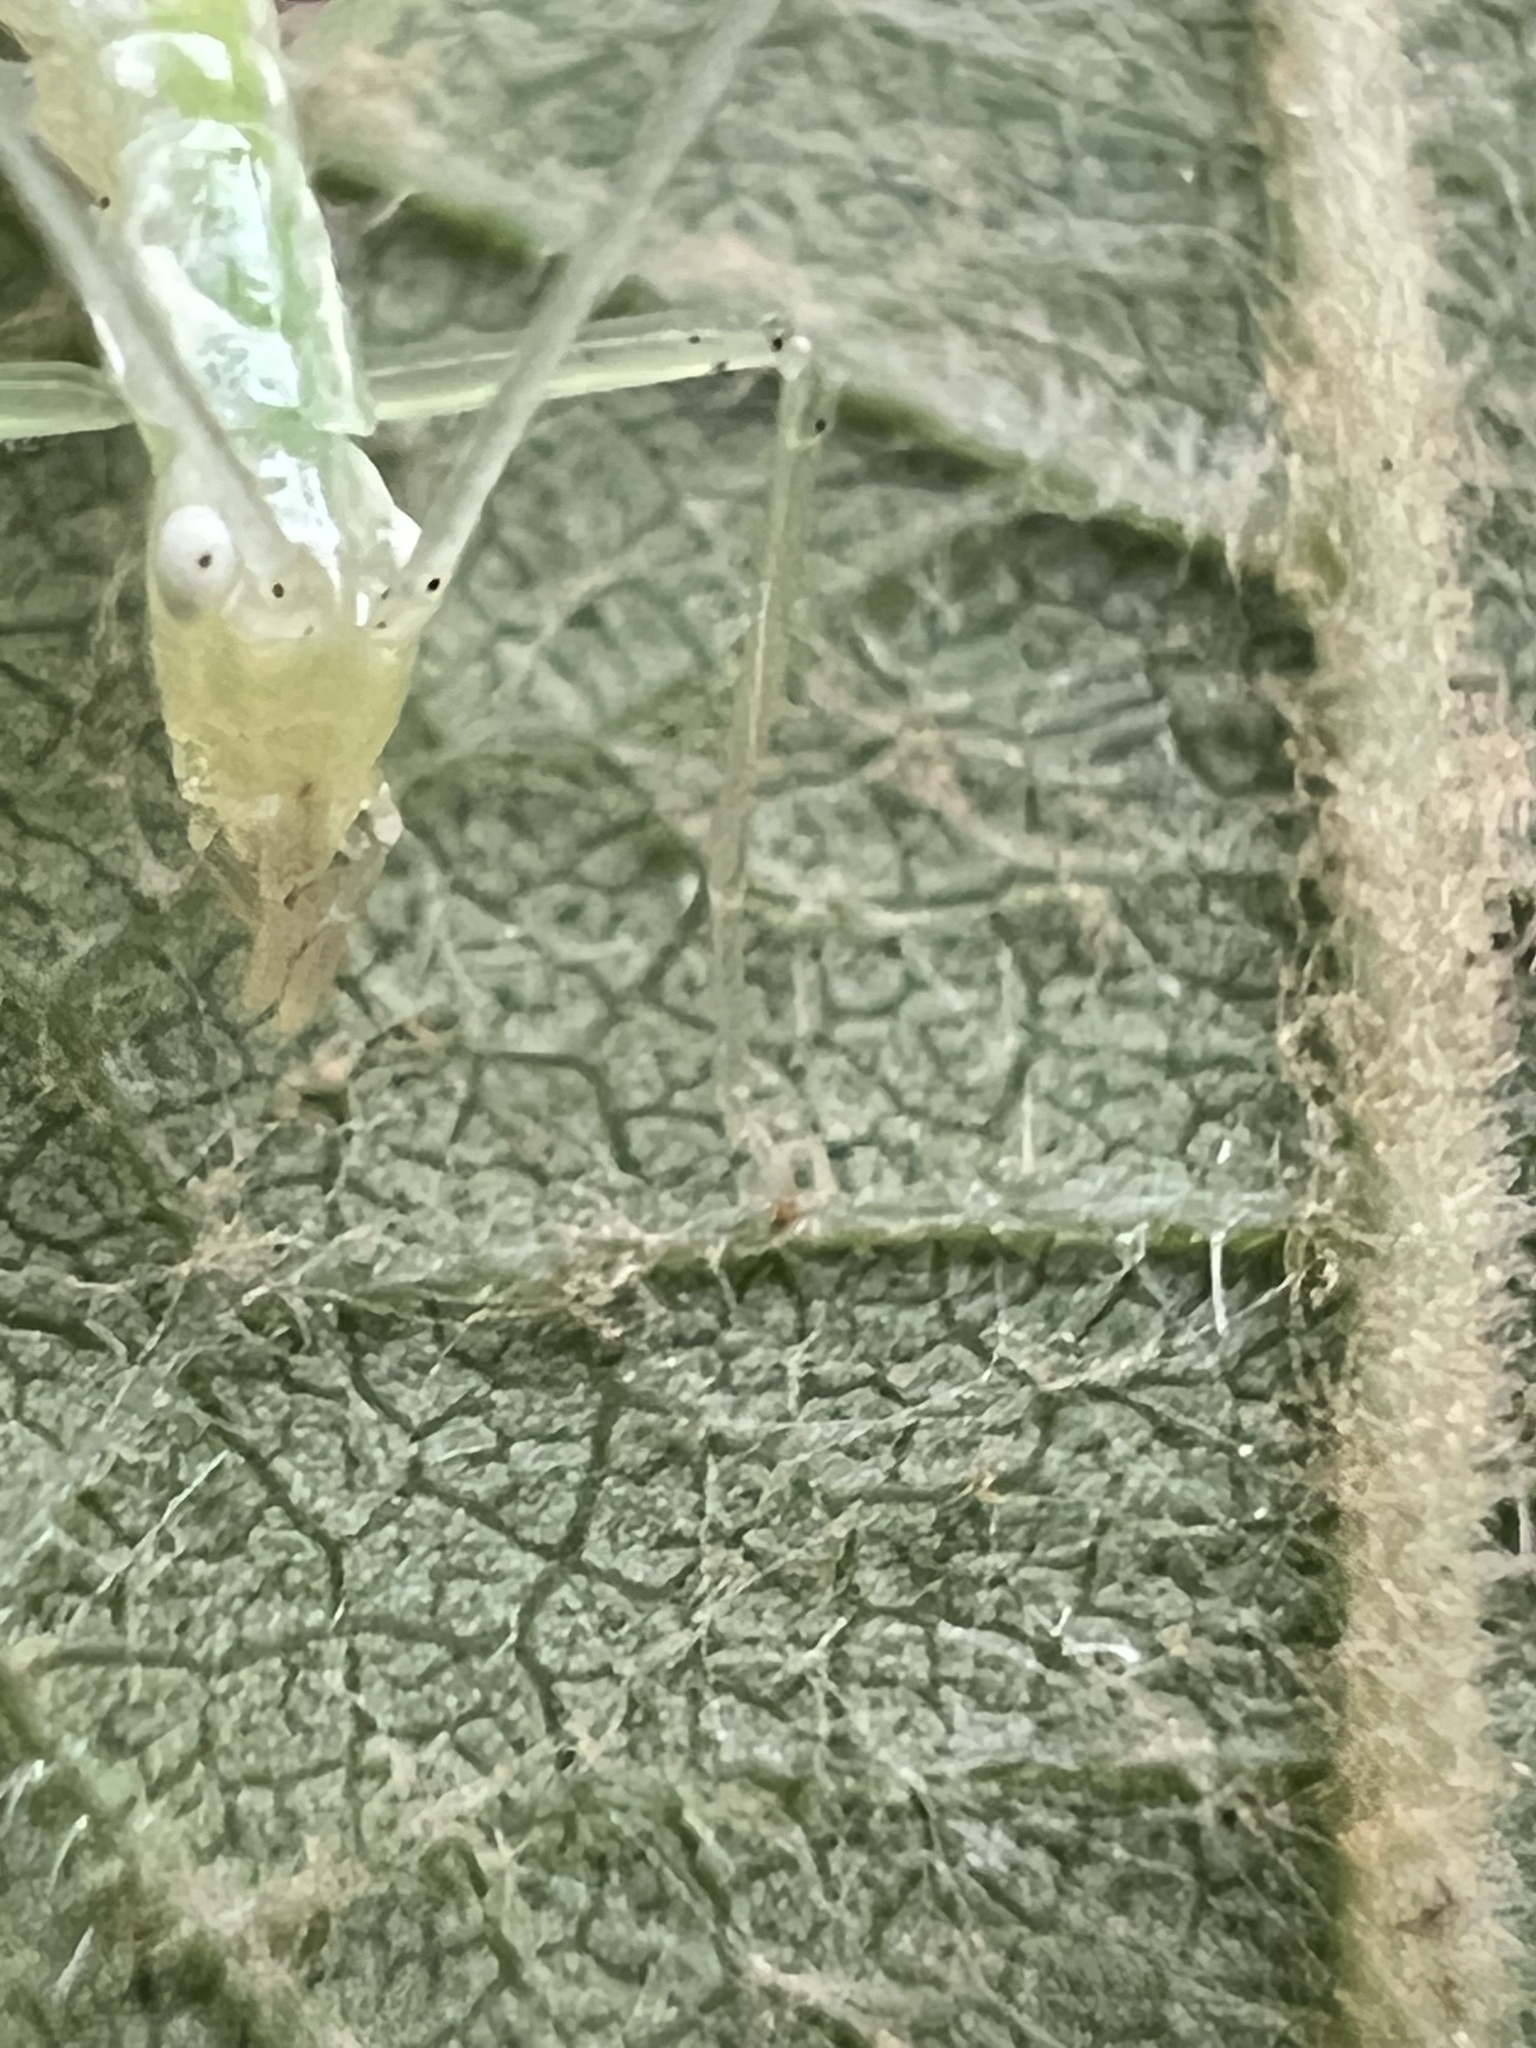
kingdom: Animalia
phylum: Arthropoda
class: Insecta
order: Orthoptera
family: Gryllidae
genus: Oecanthus
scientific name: Oecanthus fultoni
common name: Snowy tree cricket
